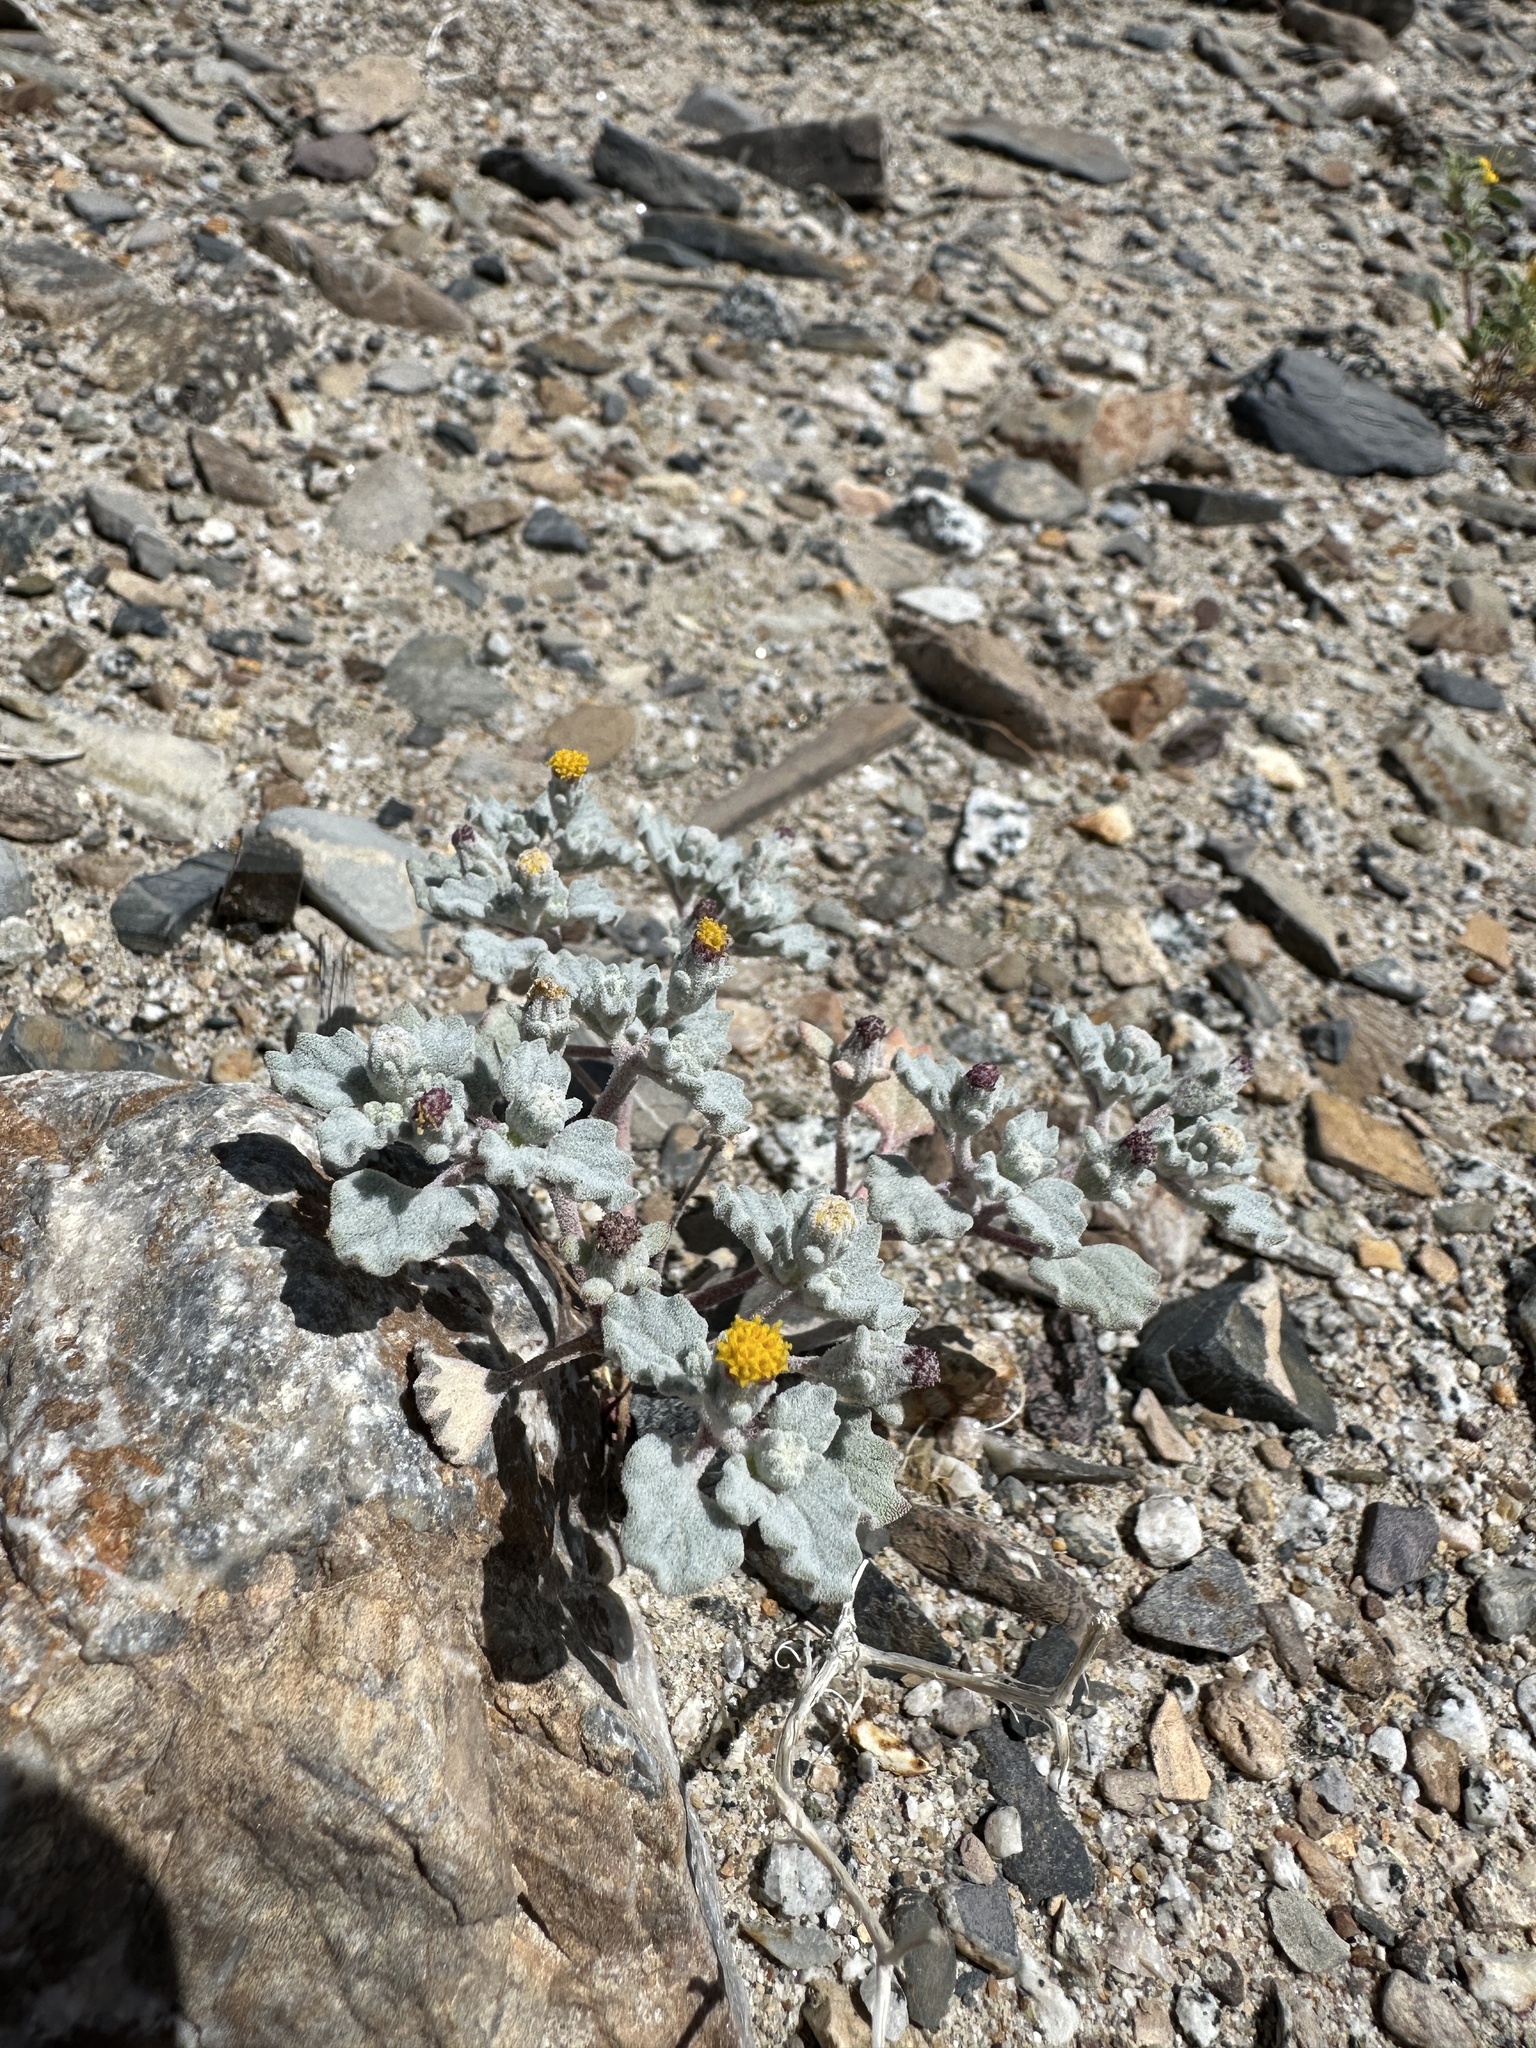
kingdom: Plantae
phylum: Tracheophyta
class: Magnoliopsida
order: Asterales
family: Asteraceae
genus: Psathyrotes
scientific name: Psathyrotes annua
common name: Mealy rosettes
